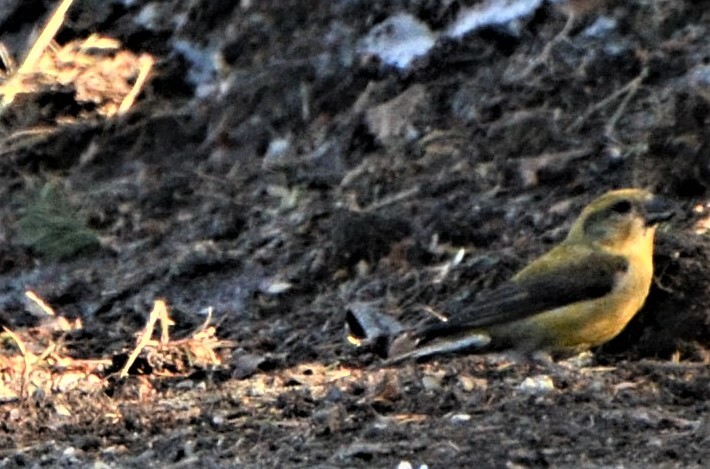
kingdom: Animalia
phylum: Chordata
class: Aves
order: Passeriformes
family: Fringillidae
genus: Loxia
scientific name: Loxia curvirostra
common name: Red crossbill
